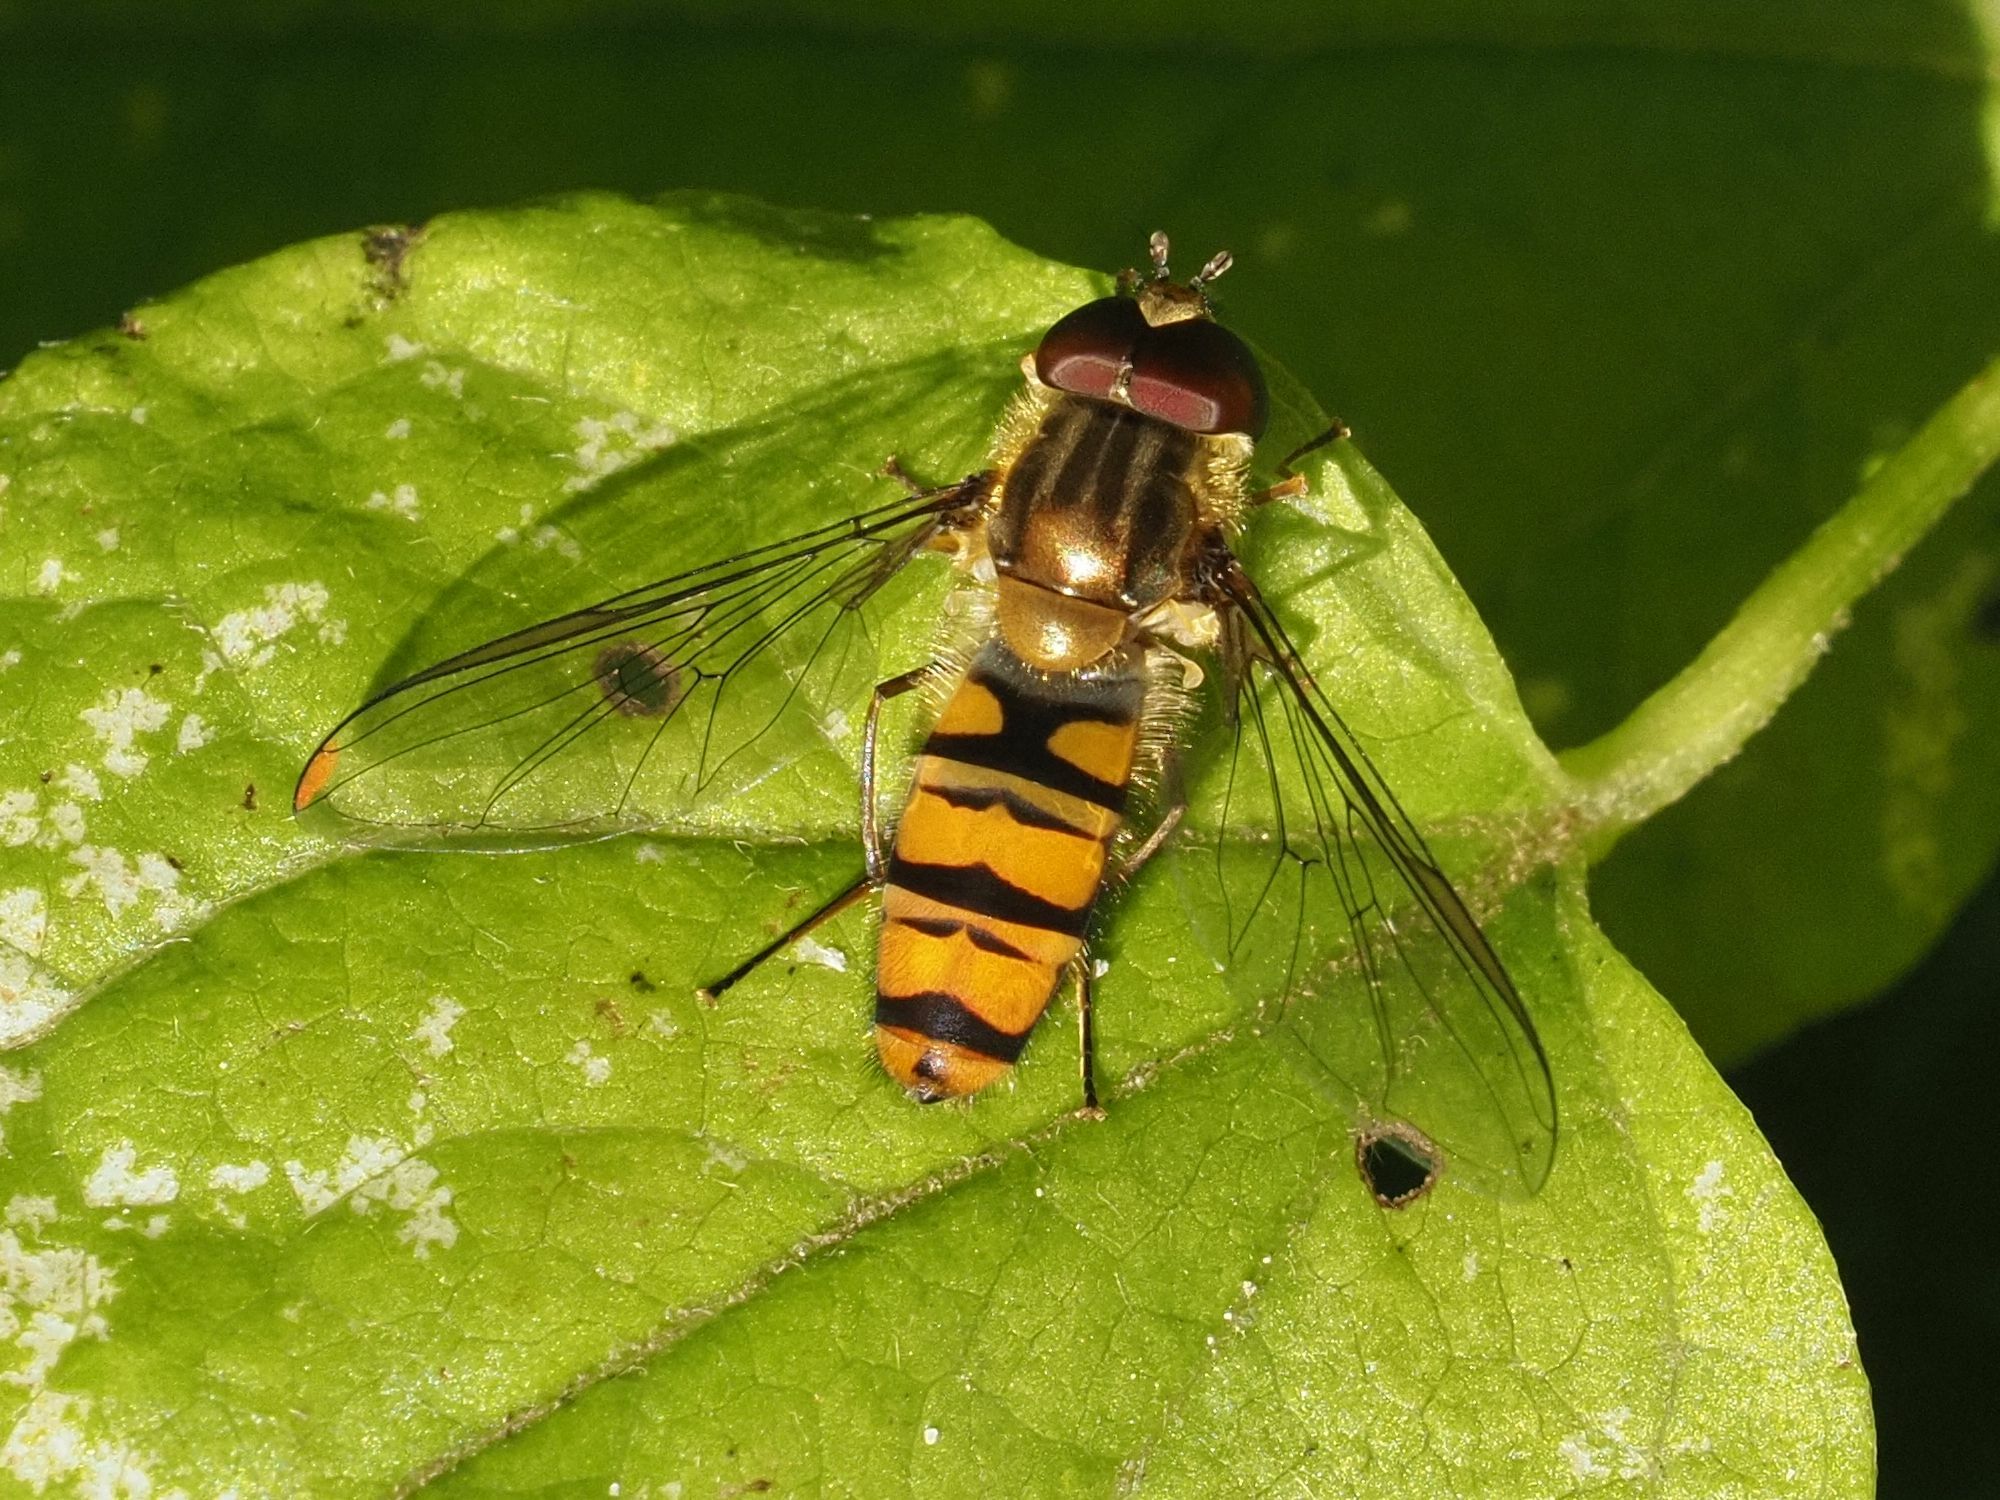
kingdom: Animalia
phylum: Arthropoda
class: Insecta
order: Diptera
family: Syrphidae
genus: Episyrphus
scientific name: Episyrphus balteatus
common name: Marmalade hoverfly
